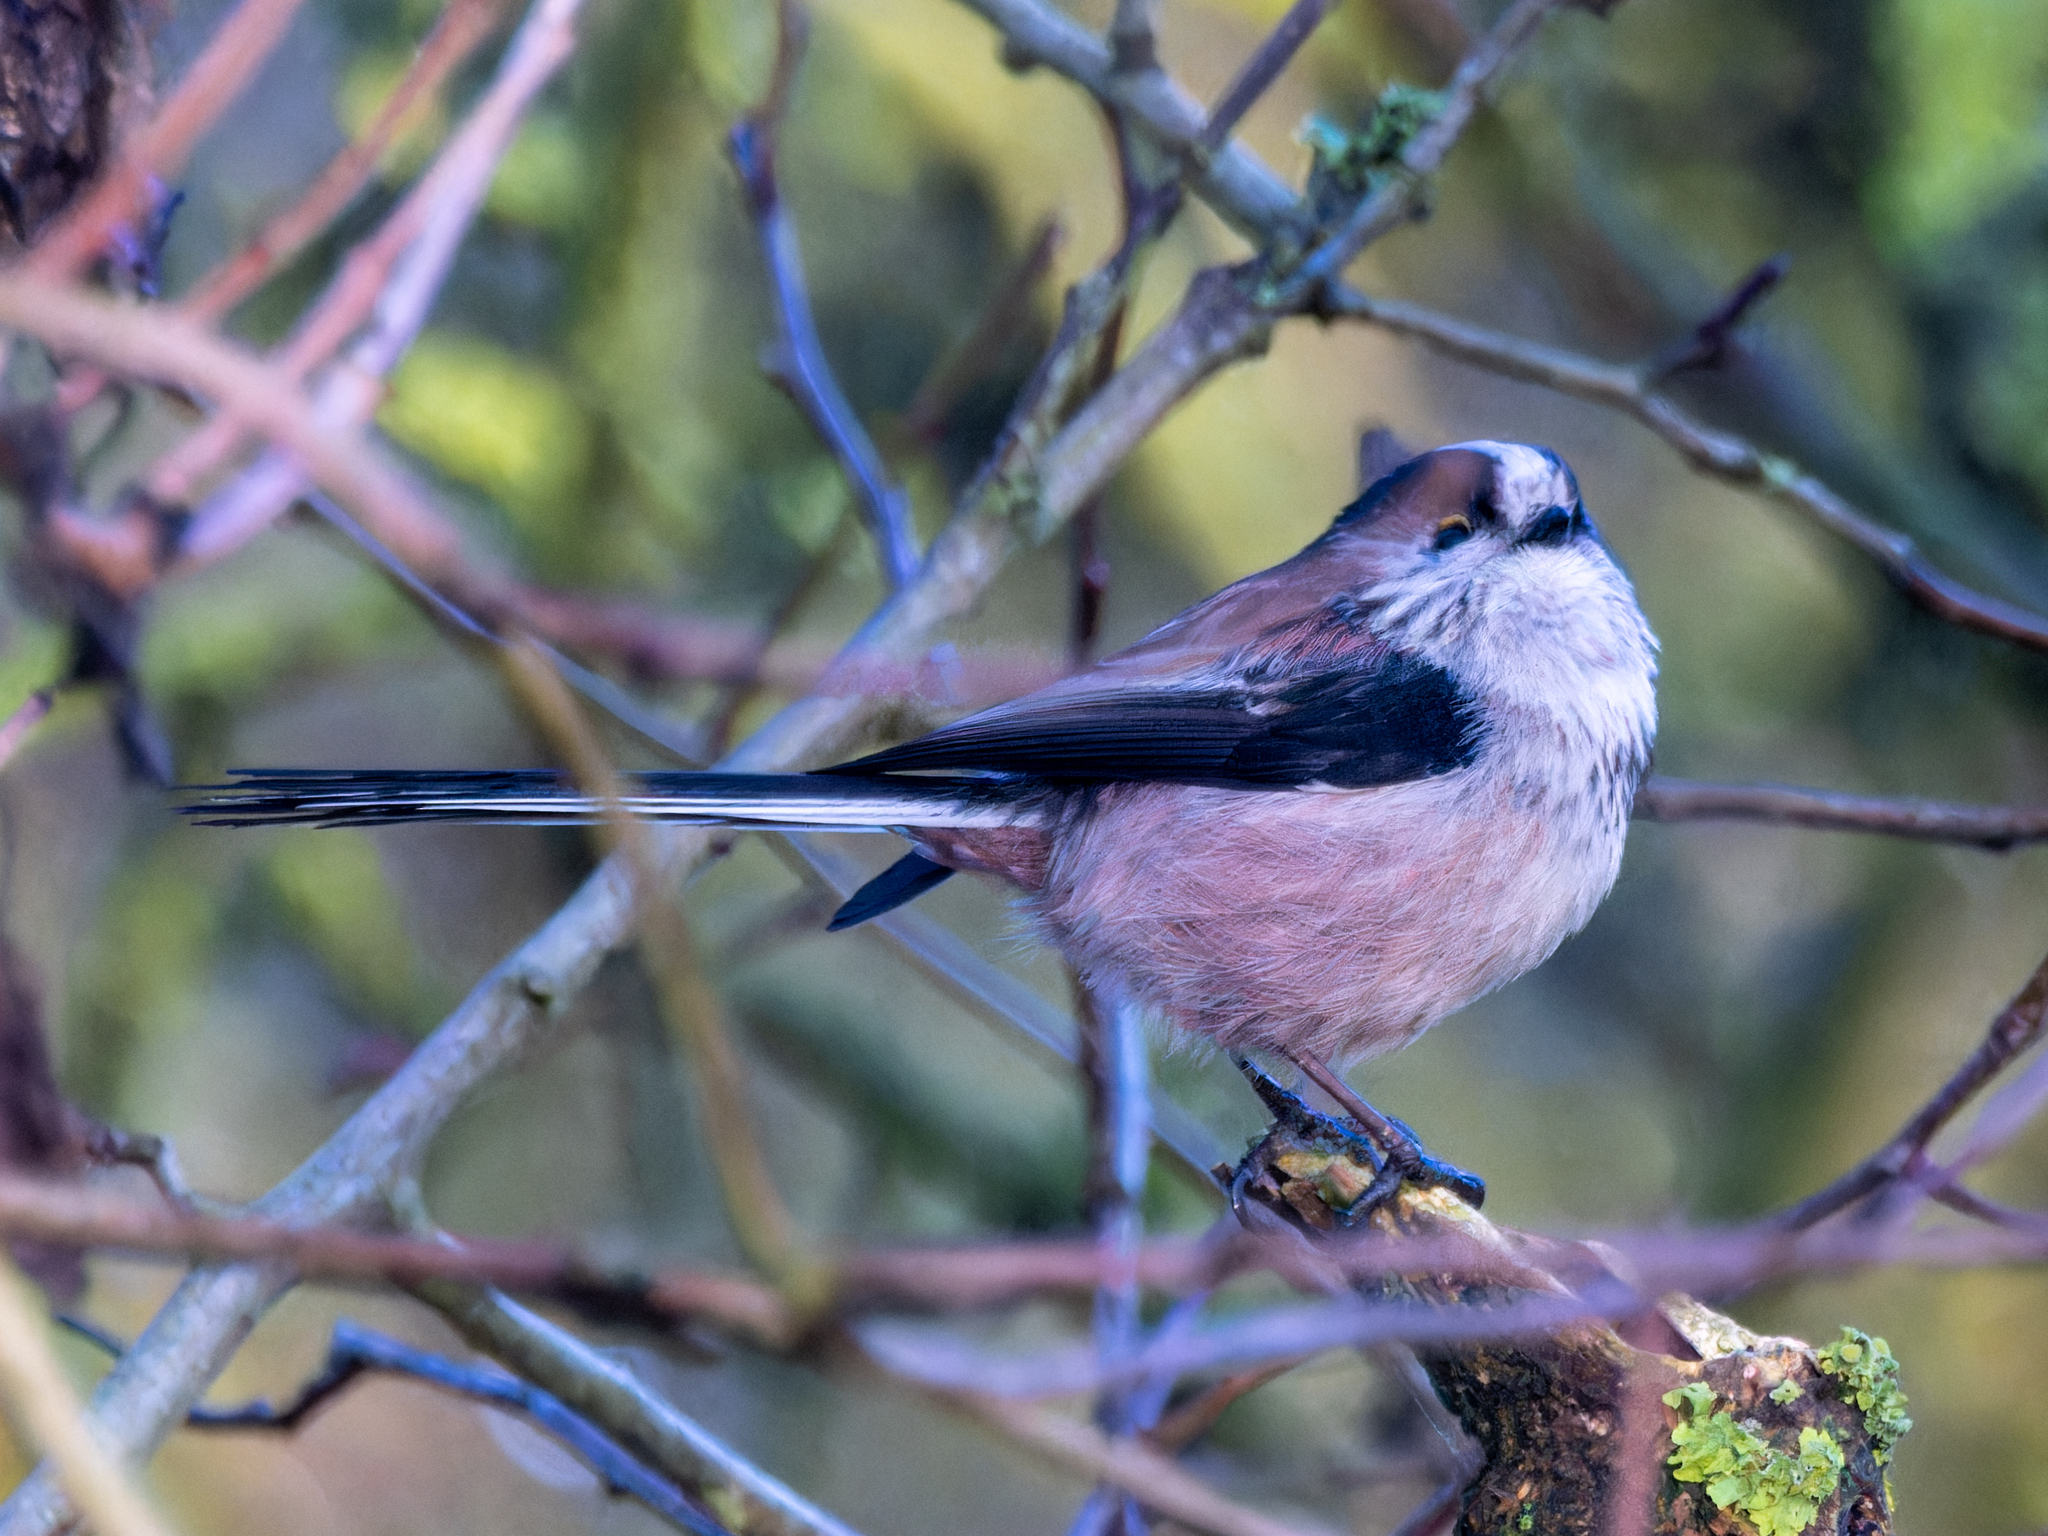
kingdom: Animalia
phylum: Chordata
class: Aves
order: Passeriformes
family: Aegithalidae
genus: Aegithalos
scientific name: Aegithalos caudatus
